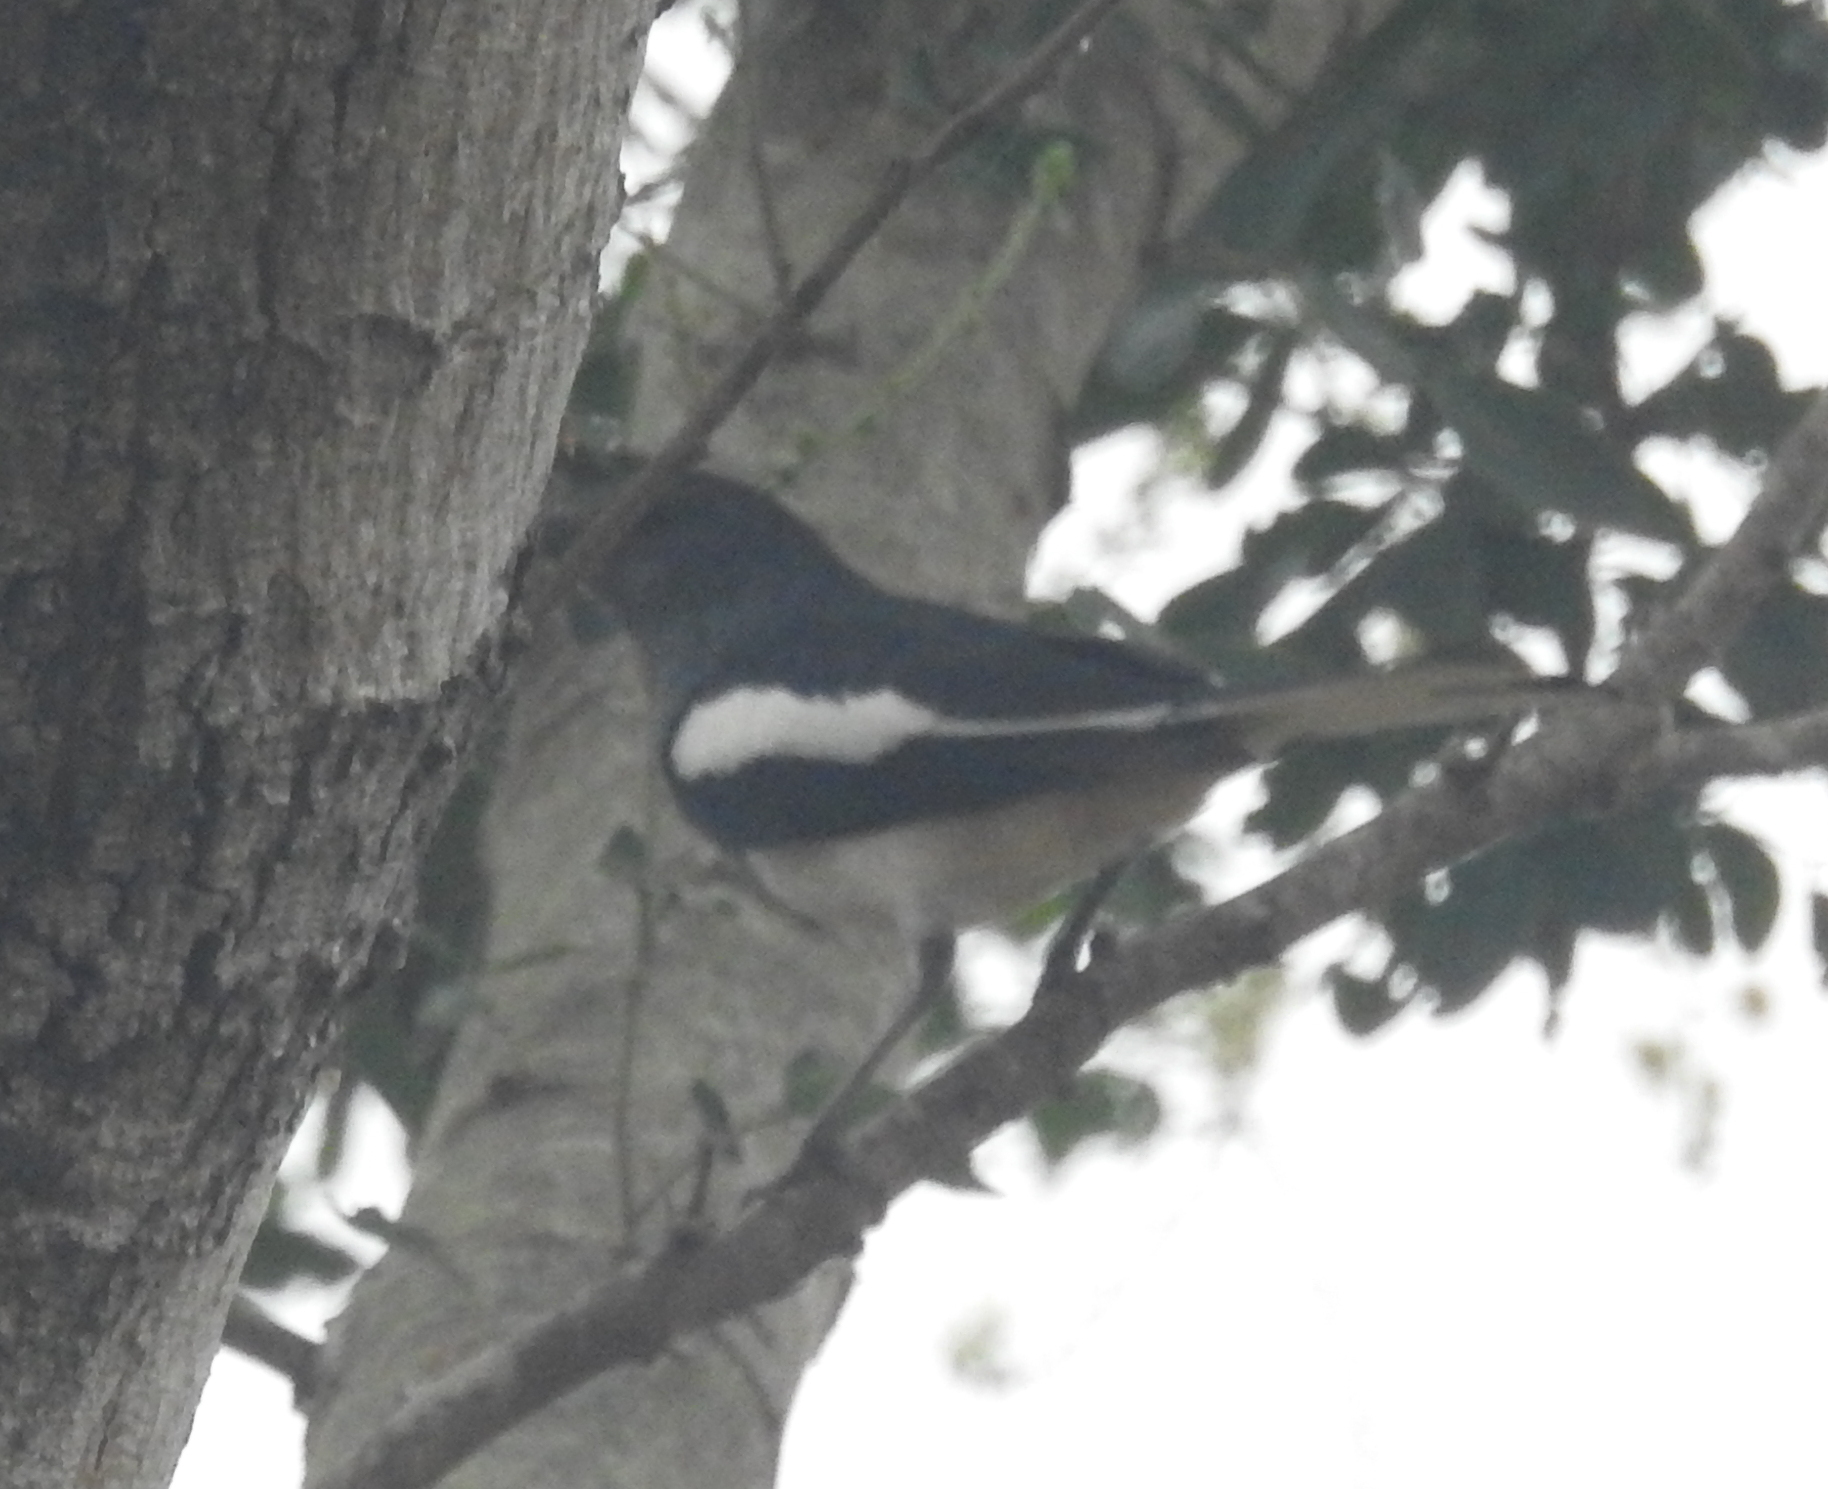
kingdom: Animalia
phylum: Chordata
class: Aves
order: Passeriformes
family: Muscicapidae
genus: Copsychus
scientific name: Copsychus saularis
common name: Oriental magpie-robin
